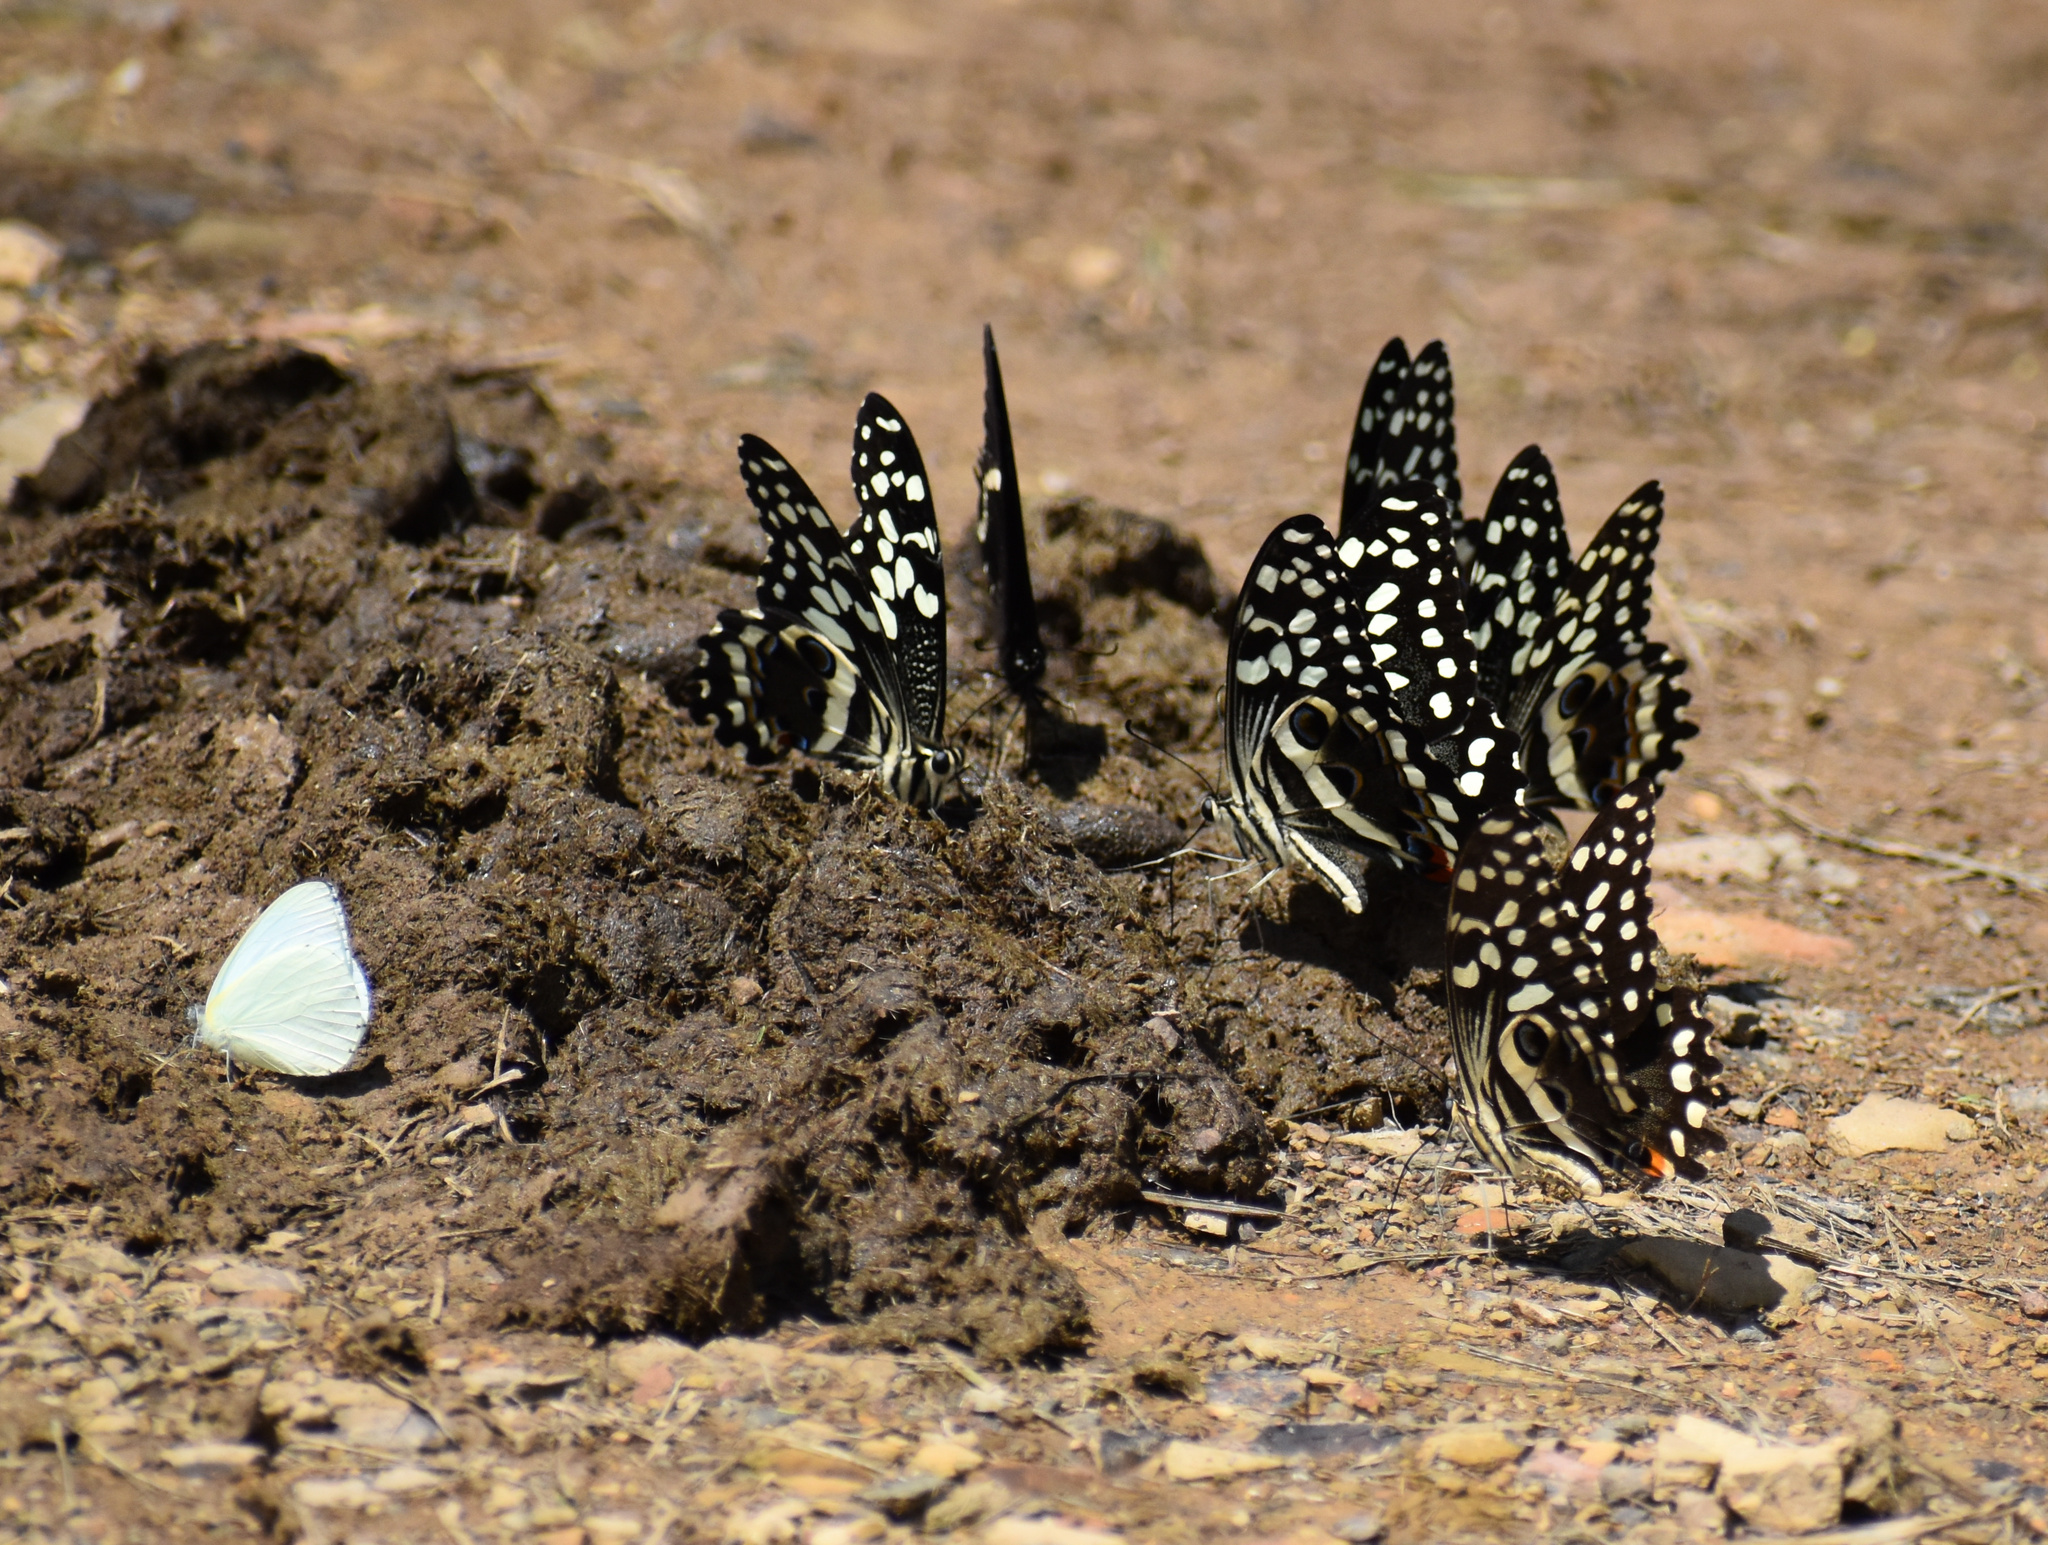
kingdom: Animalia
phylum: Arthropoda
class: Insecta
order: Lepidoptera
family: Papilionidae
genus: Papilio
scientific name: Papilio demodocus
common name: Christmas butterfly
